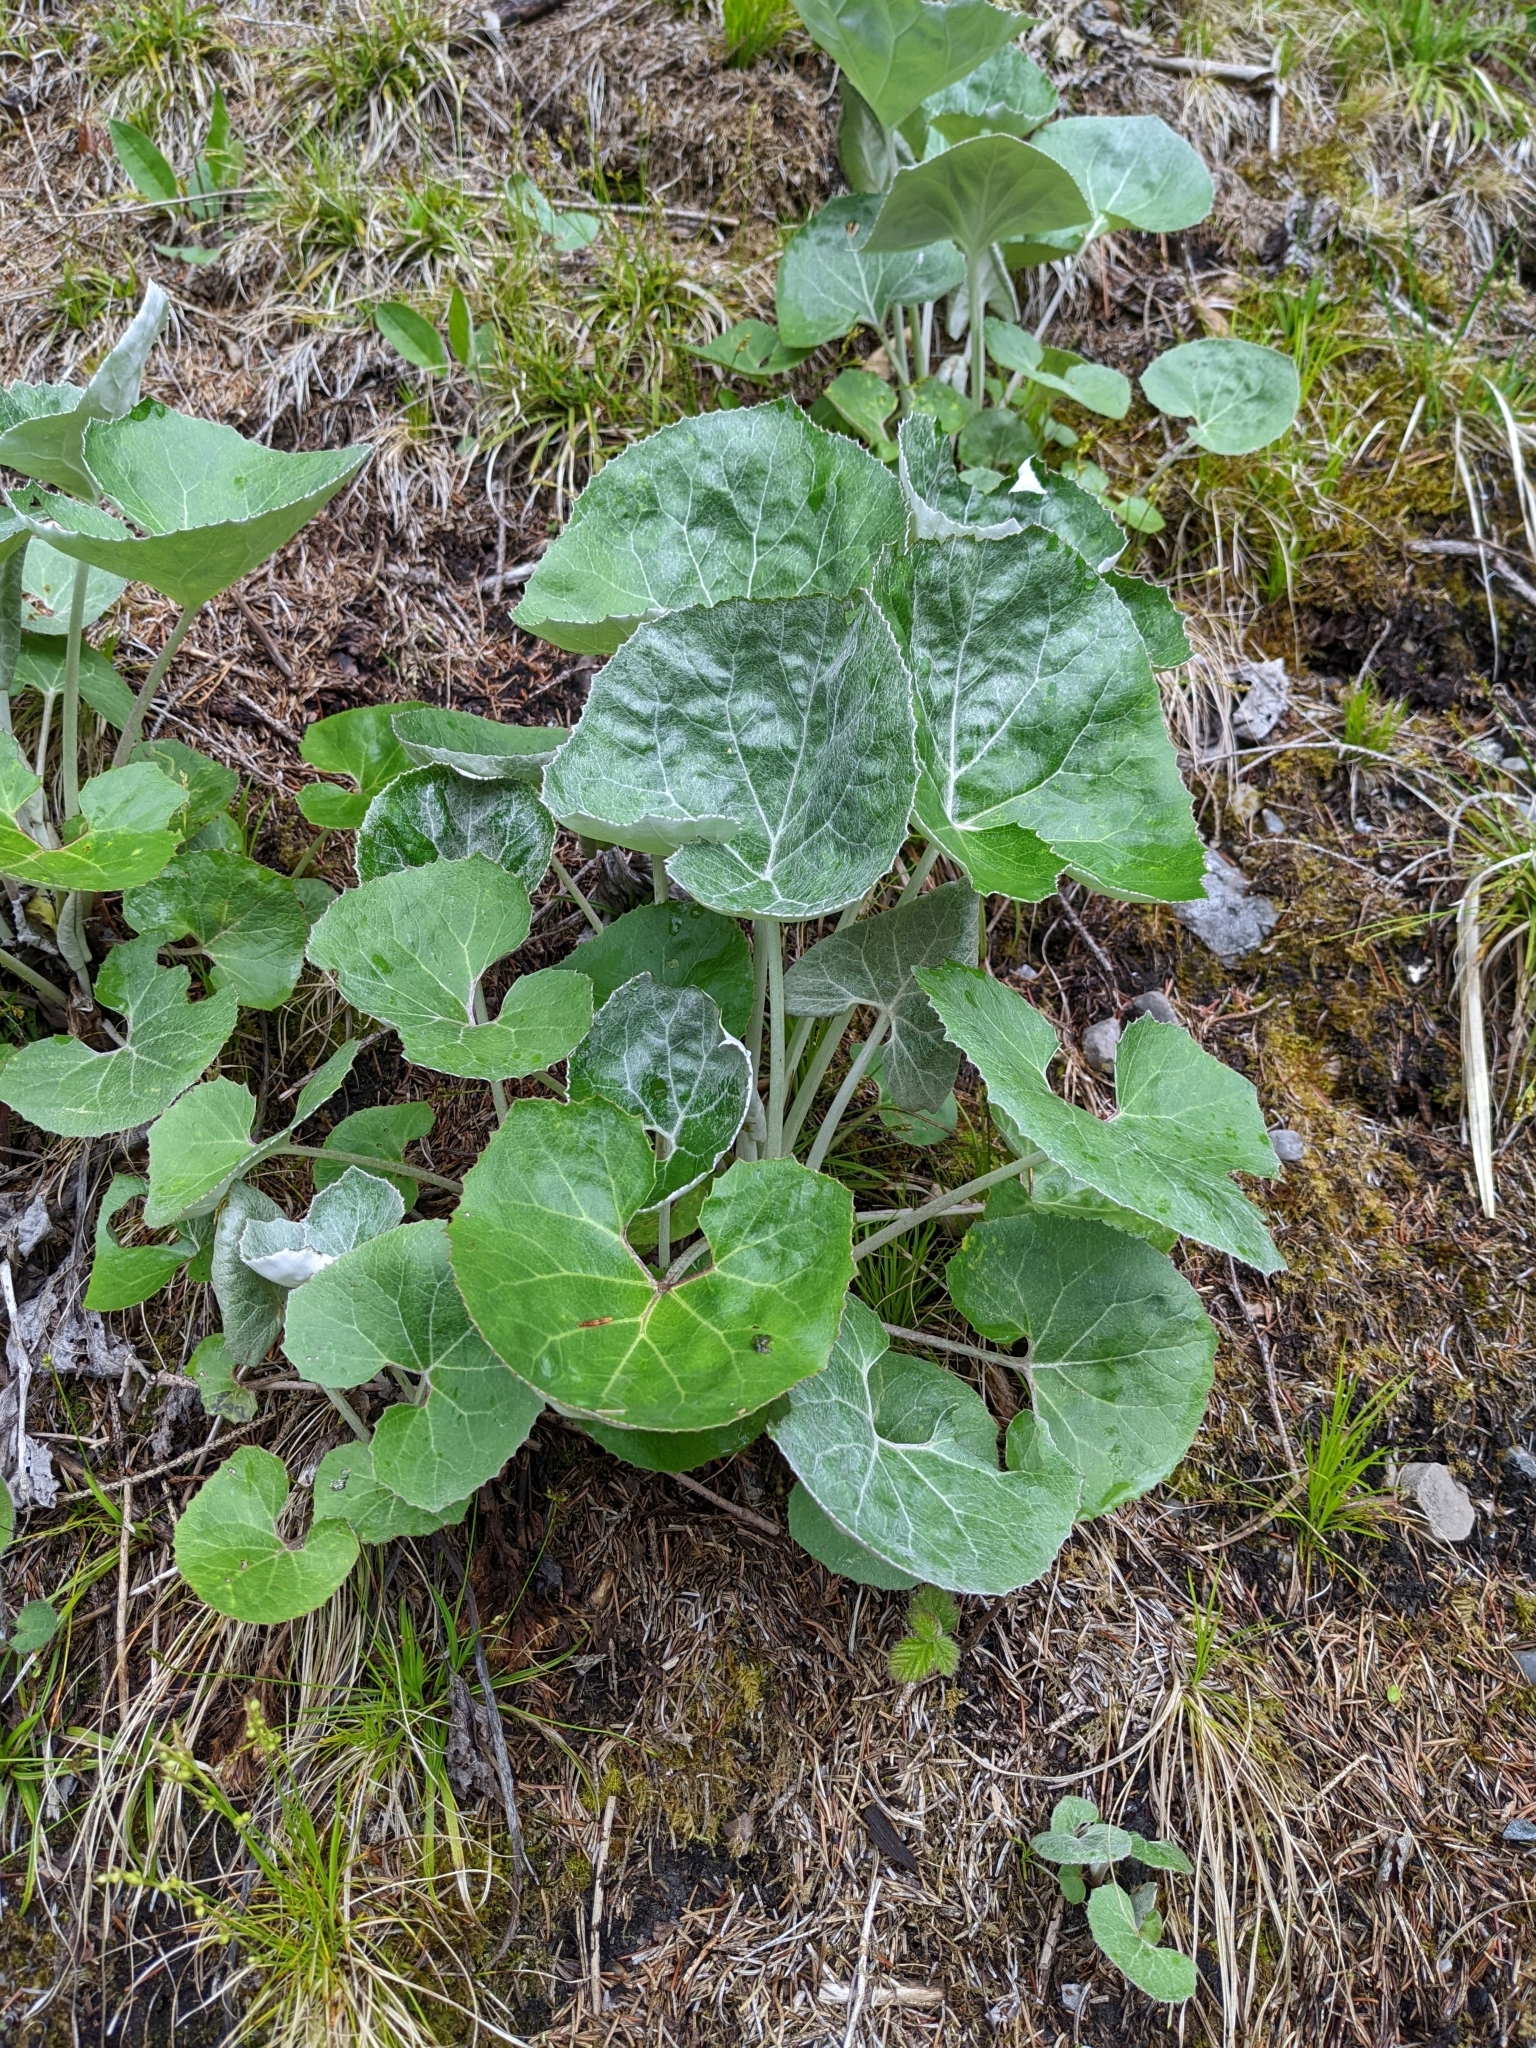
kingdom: Plantae
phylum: Tracheophyta
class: Magnoliopsida
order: Asterales
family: Asteraceae
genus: Petasites
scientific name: Petasites paradoxus
